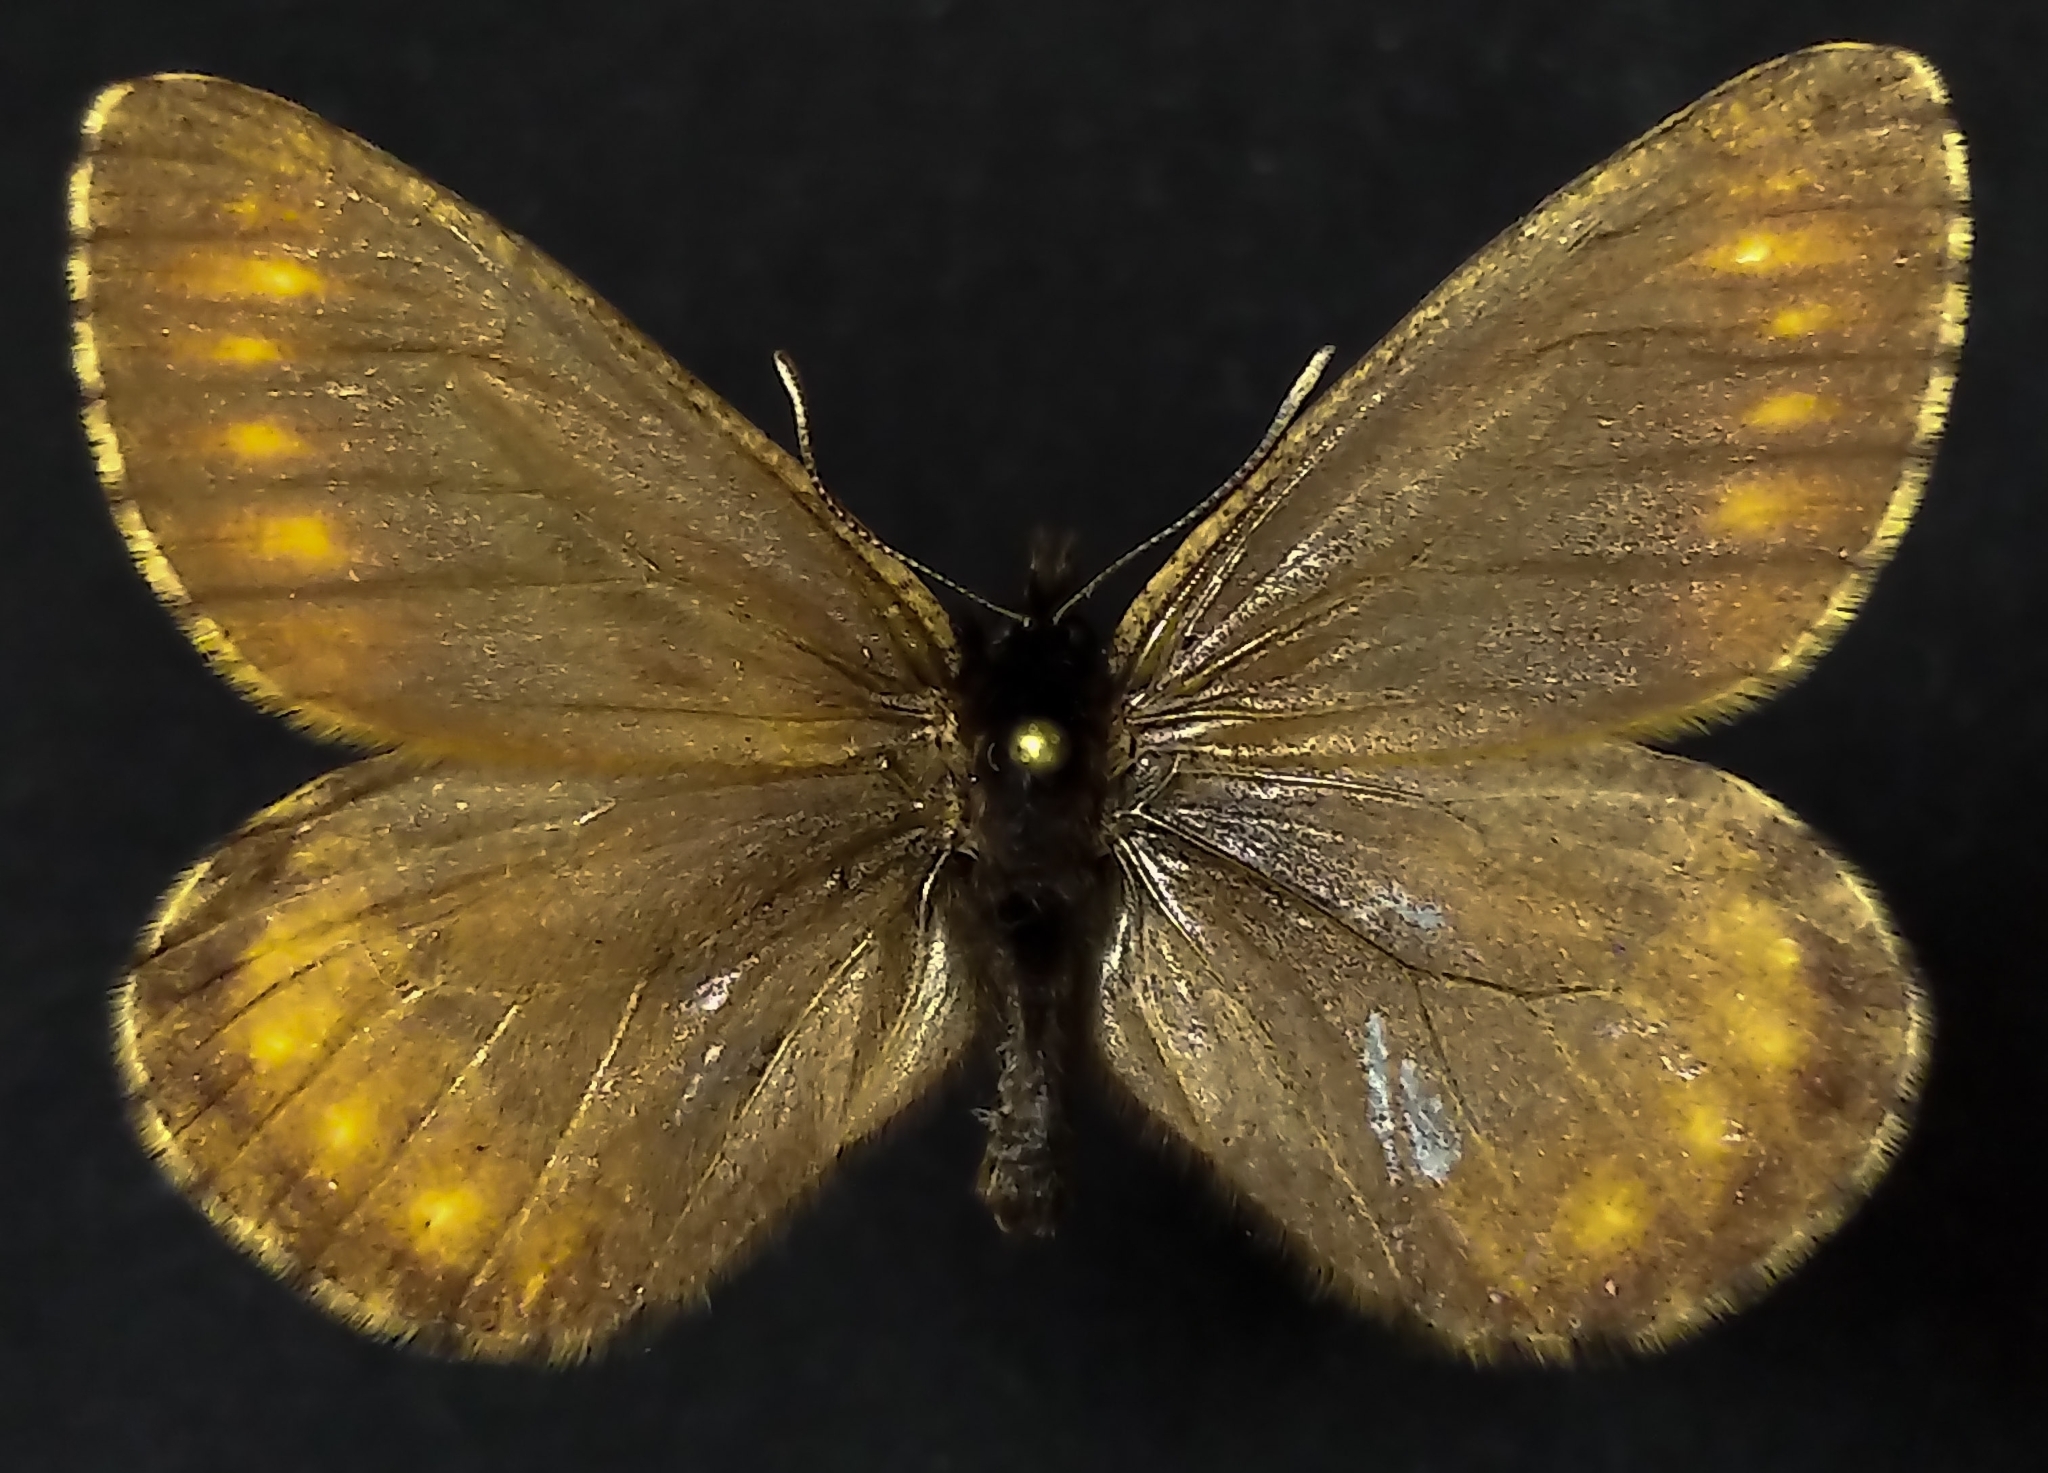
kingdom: Animalia
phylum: Arthropoda
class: Insecta
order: Lepidoptera
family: Nymphalidae
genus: Oeneis
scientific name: Oeneis bore
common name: Arctic grayling
